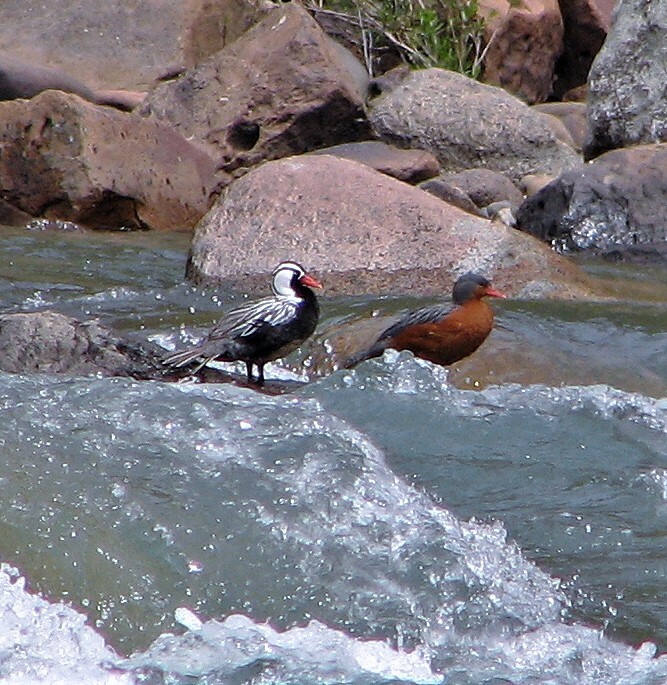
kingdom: Animalia
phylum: Chordata
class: Aves
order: Anseriformes
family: Anatidae
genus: Merganetta
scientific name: Merganetta armata
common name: Torrent duck
